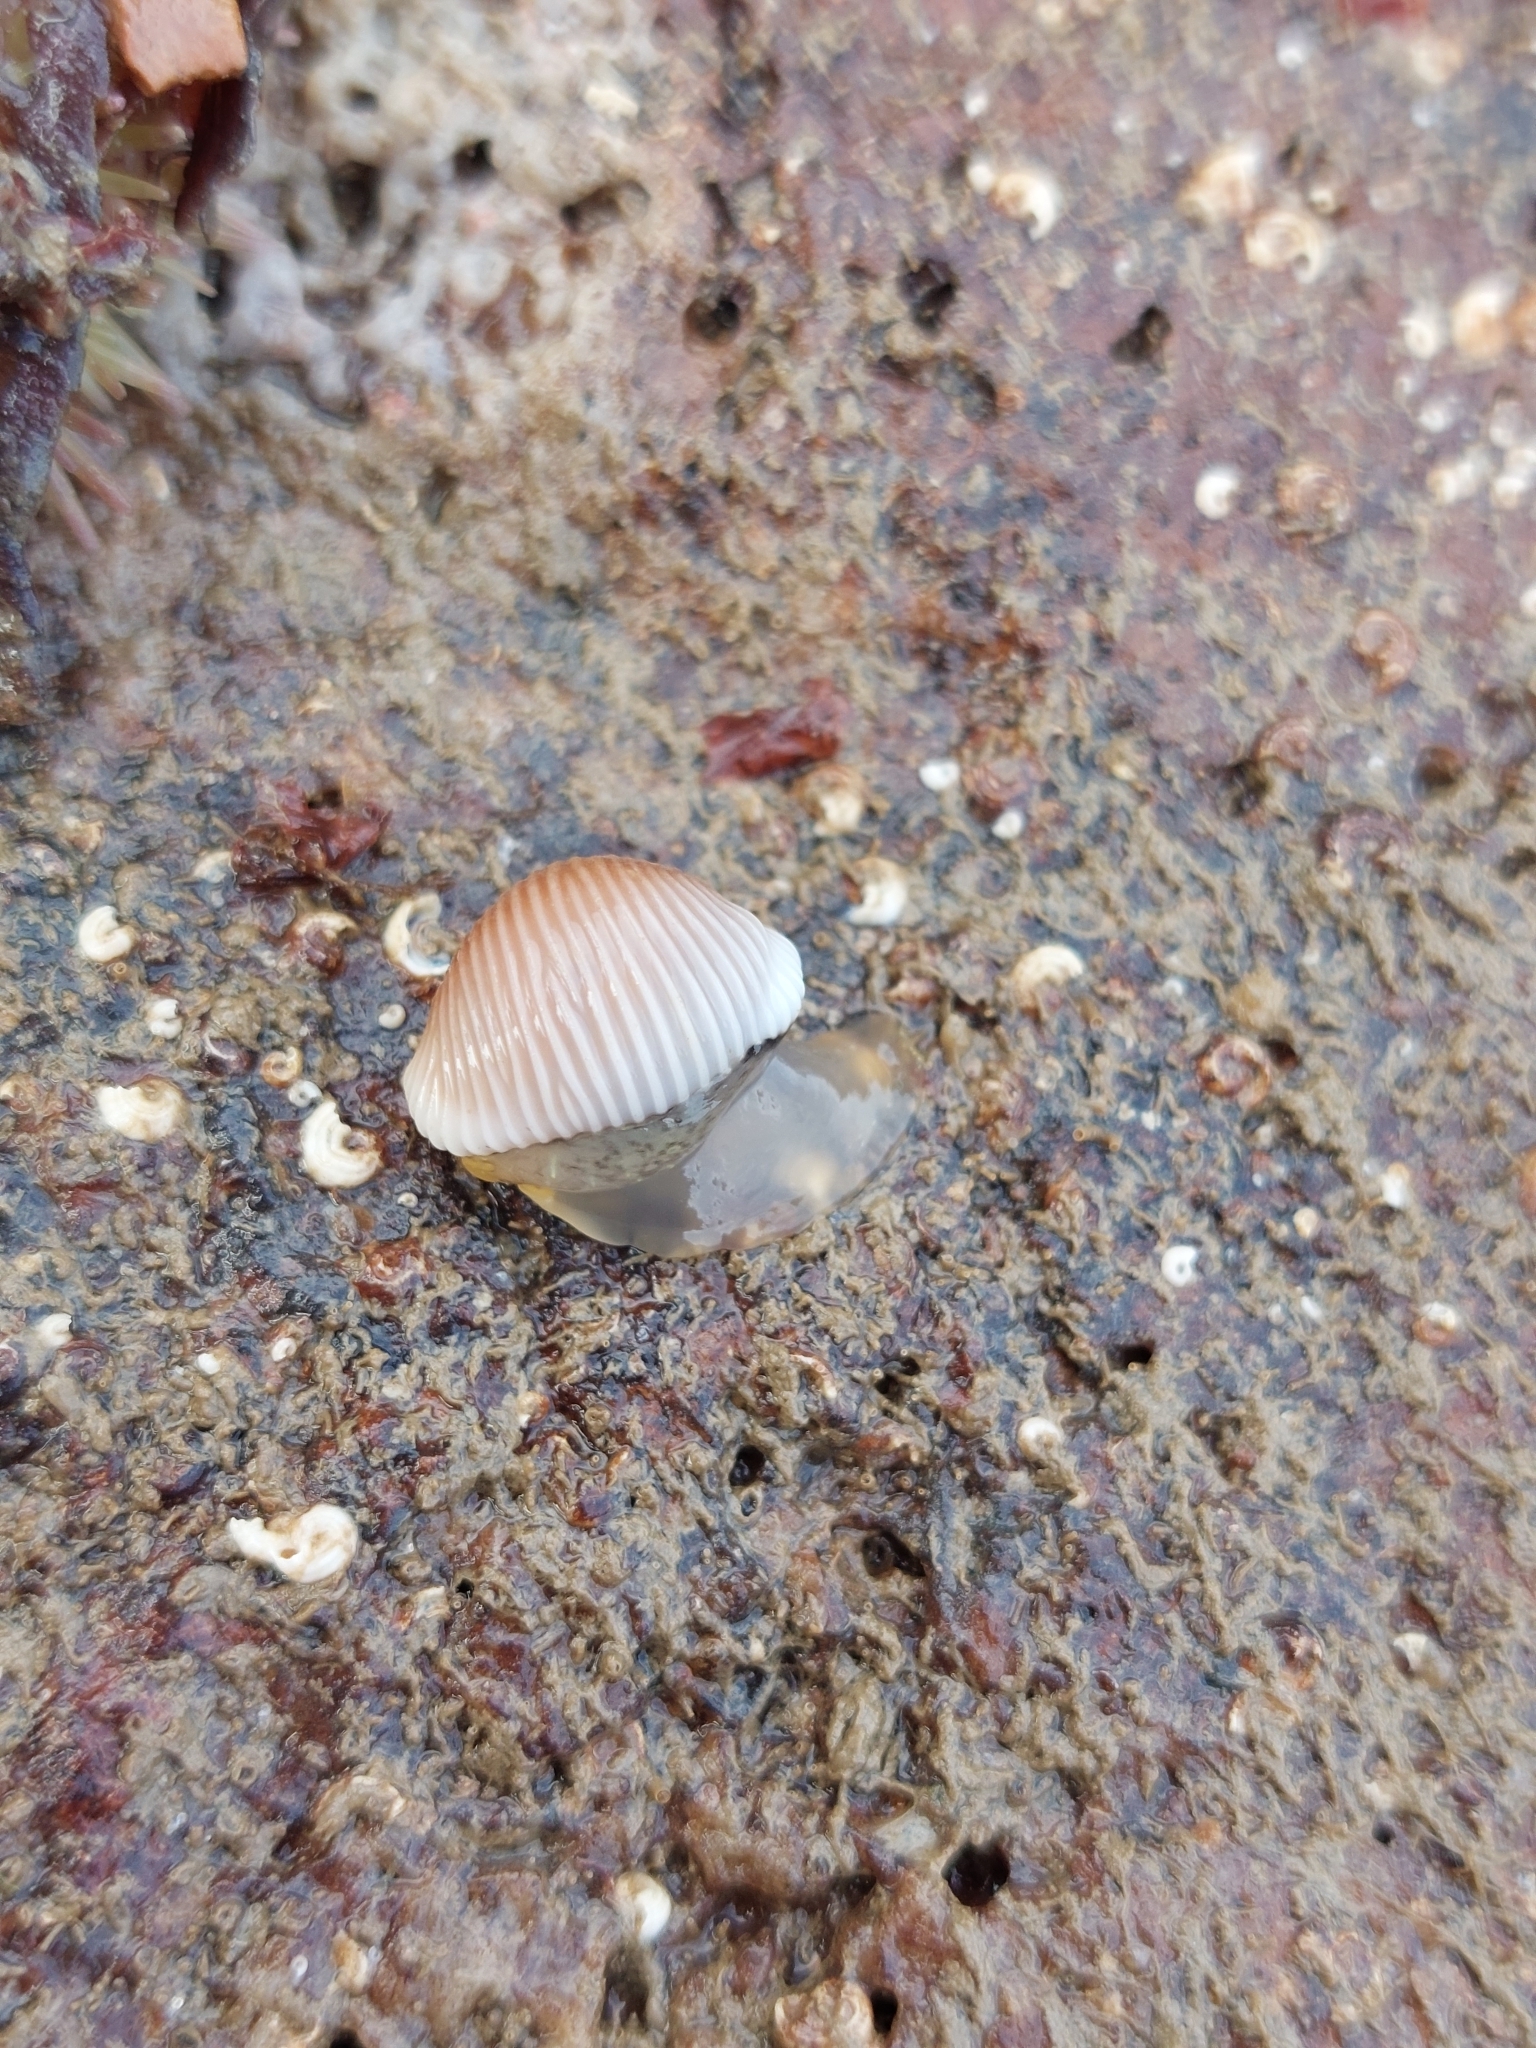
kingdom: Animalia
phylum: Mollusca
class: Gastropoda
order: Littorinimorpha
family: Triviidae
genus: Trivia
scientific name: Trivia arctica
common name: Arctic cowrie
